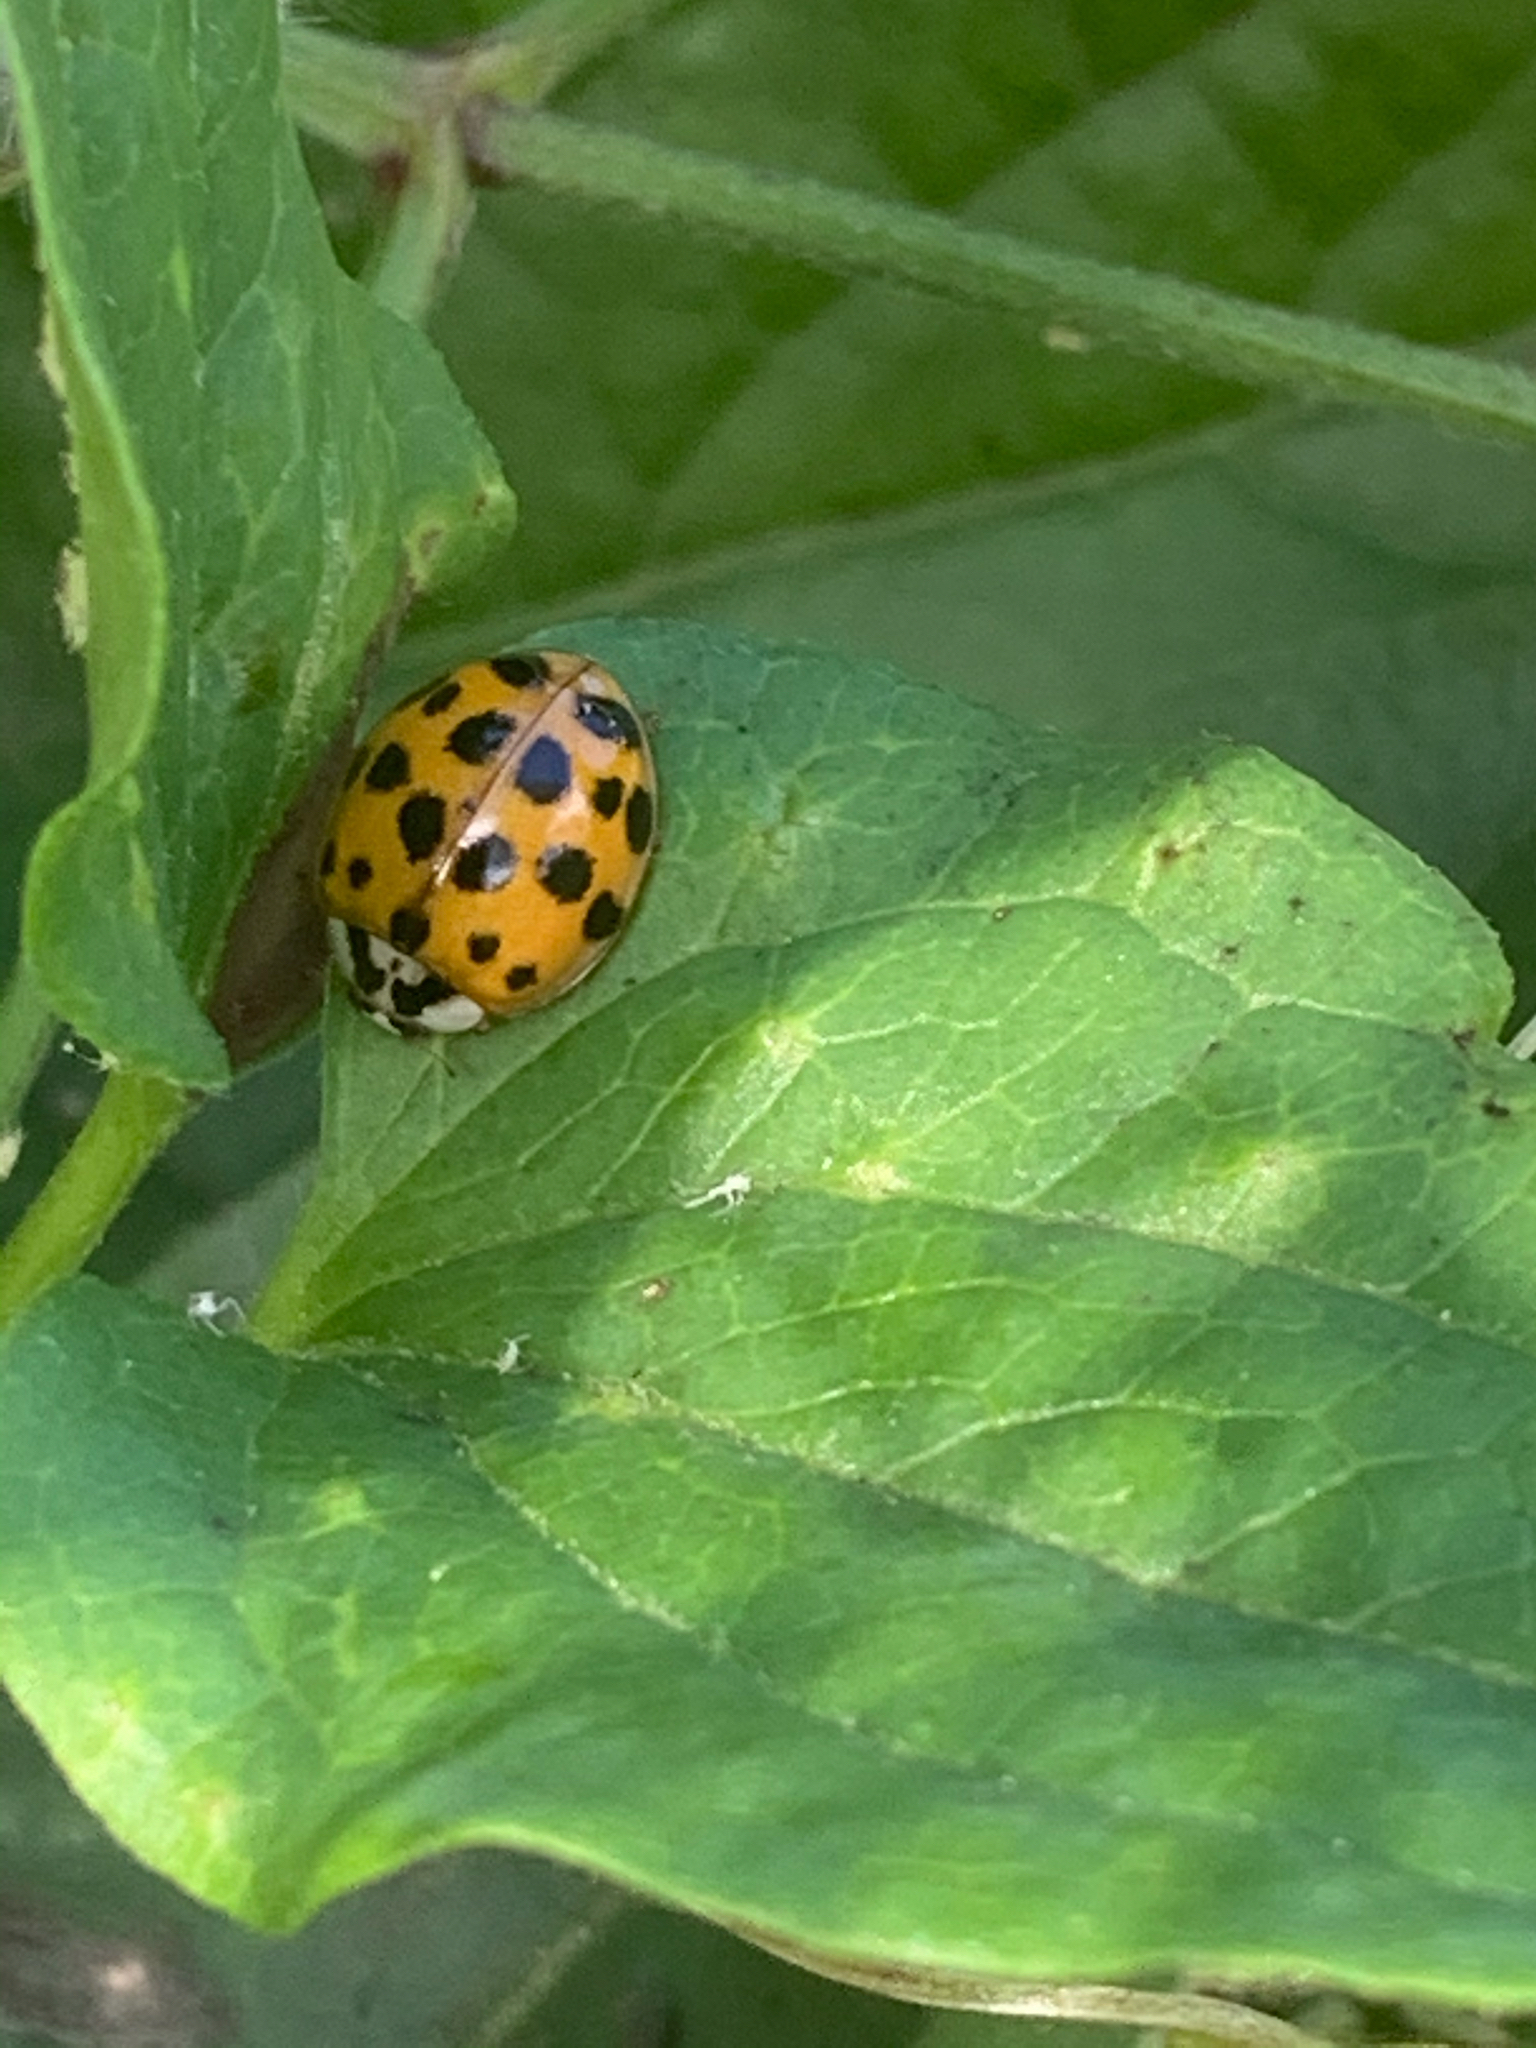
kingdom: Animalia
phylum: Arthropoda
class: Insecta
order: Coleoptera
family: Coccinellidae
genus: Harmonia
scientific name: Harmonia axyridis
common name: Harlequin ladybird
